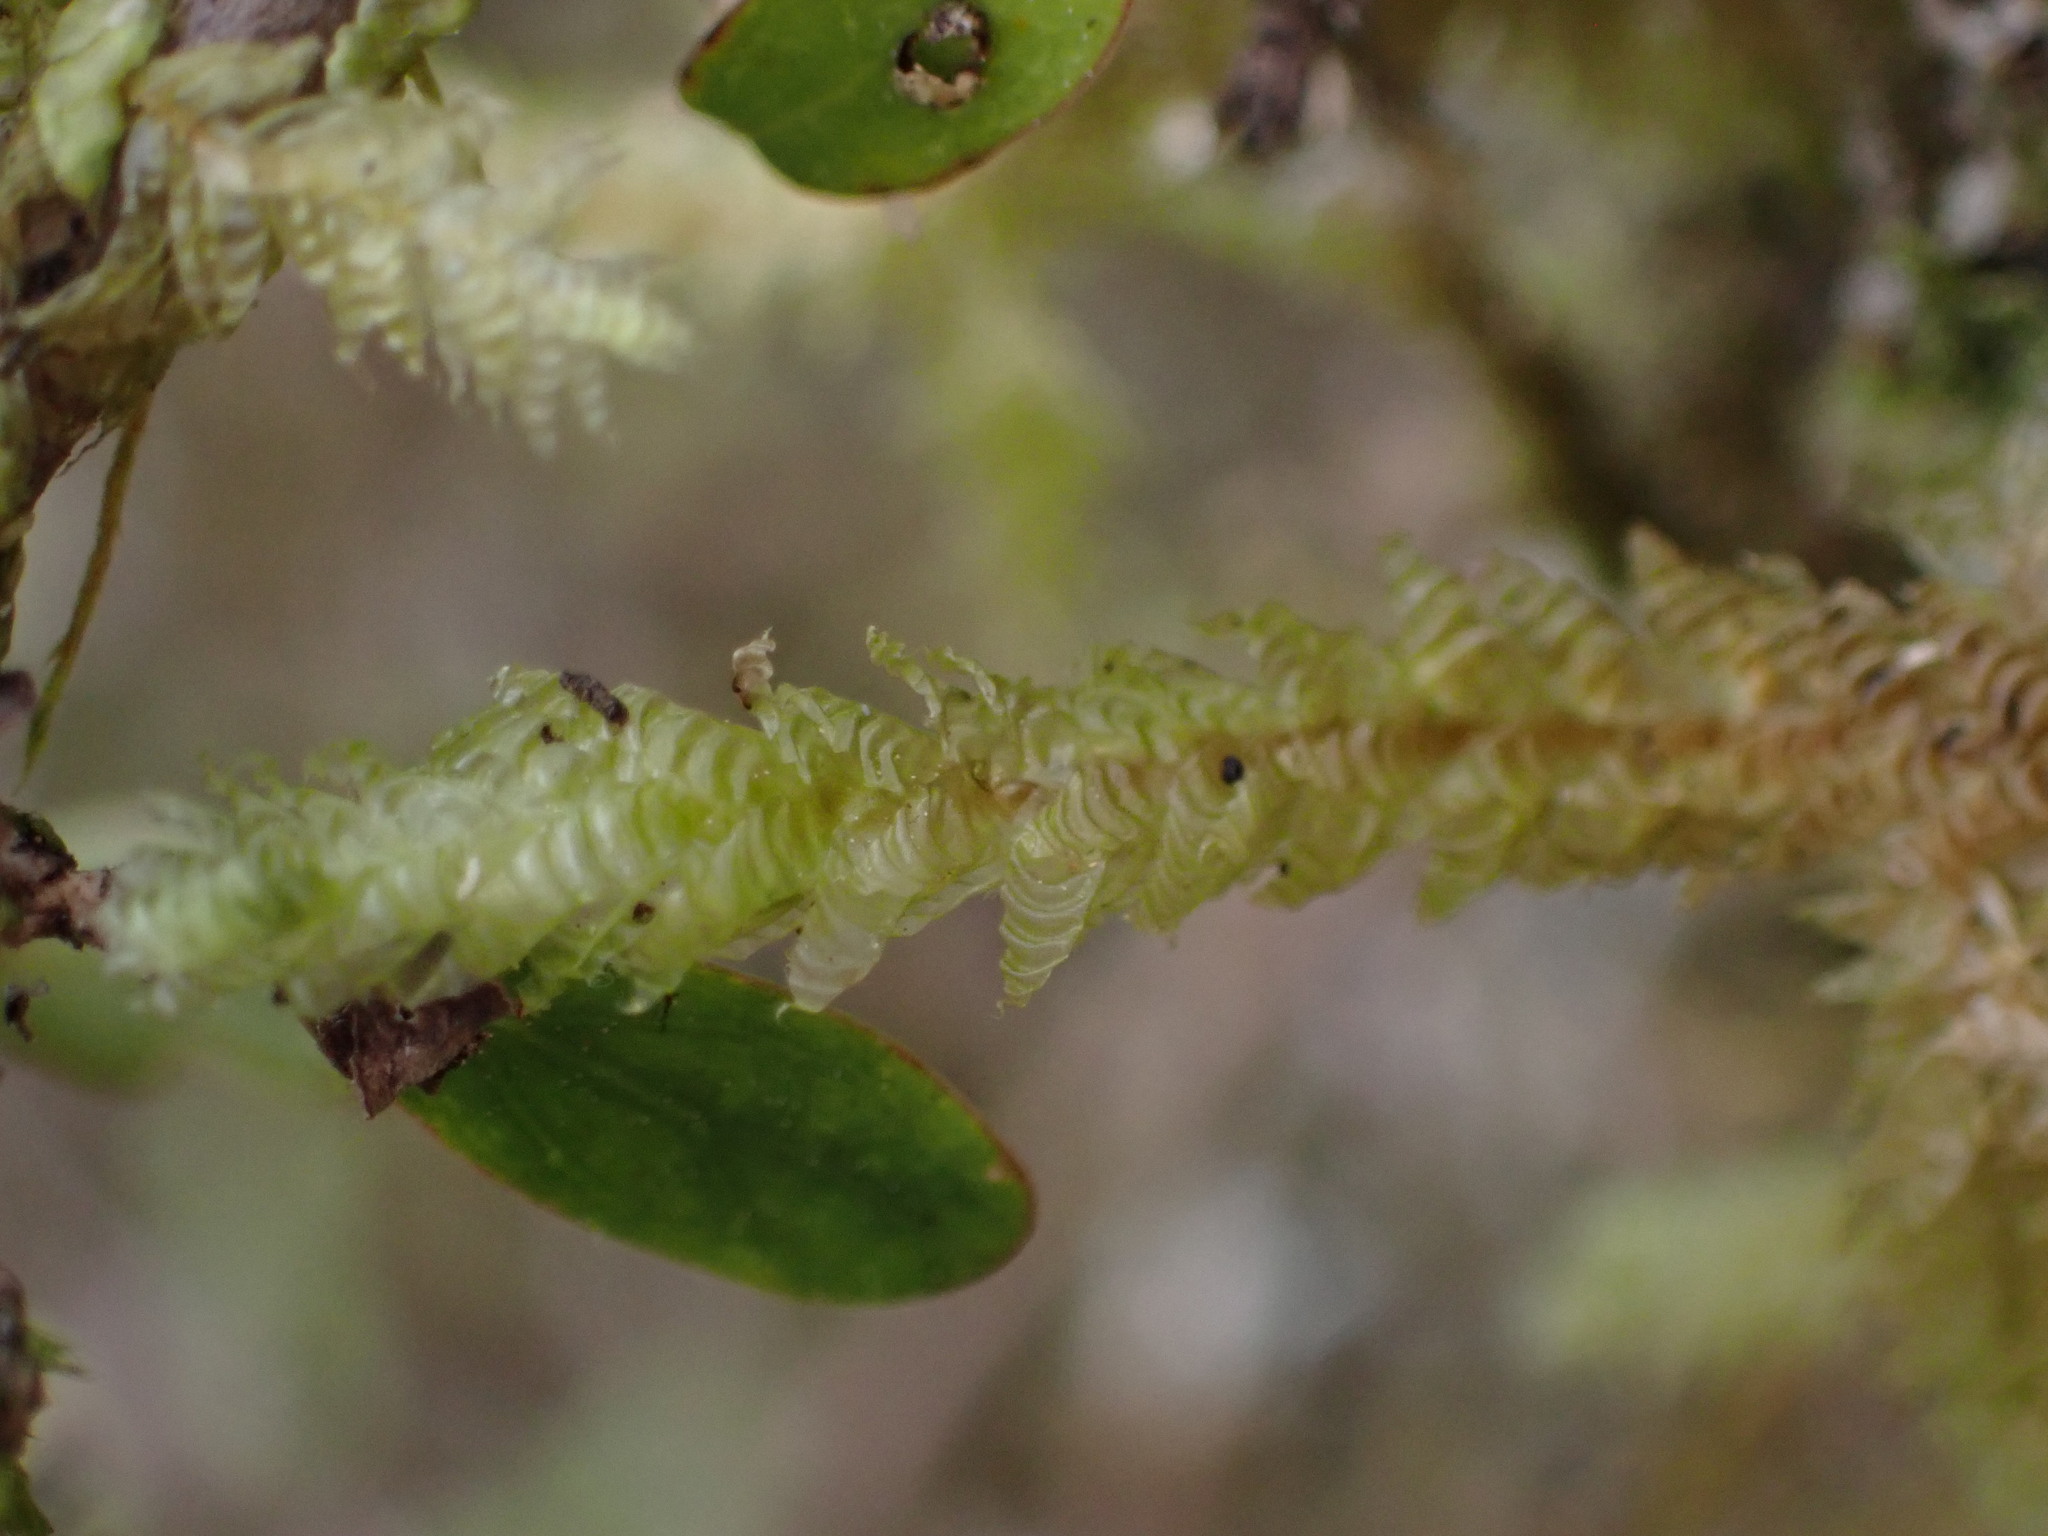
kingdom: Plantae
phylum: Bryophyta
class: Bryopsida
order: Hypnales
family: Neckeraceae
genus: Alleniella
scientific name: Alleniella hymenodonta
